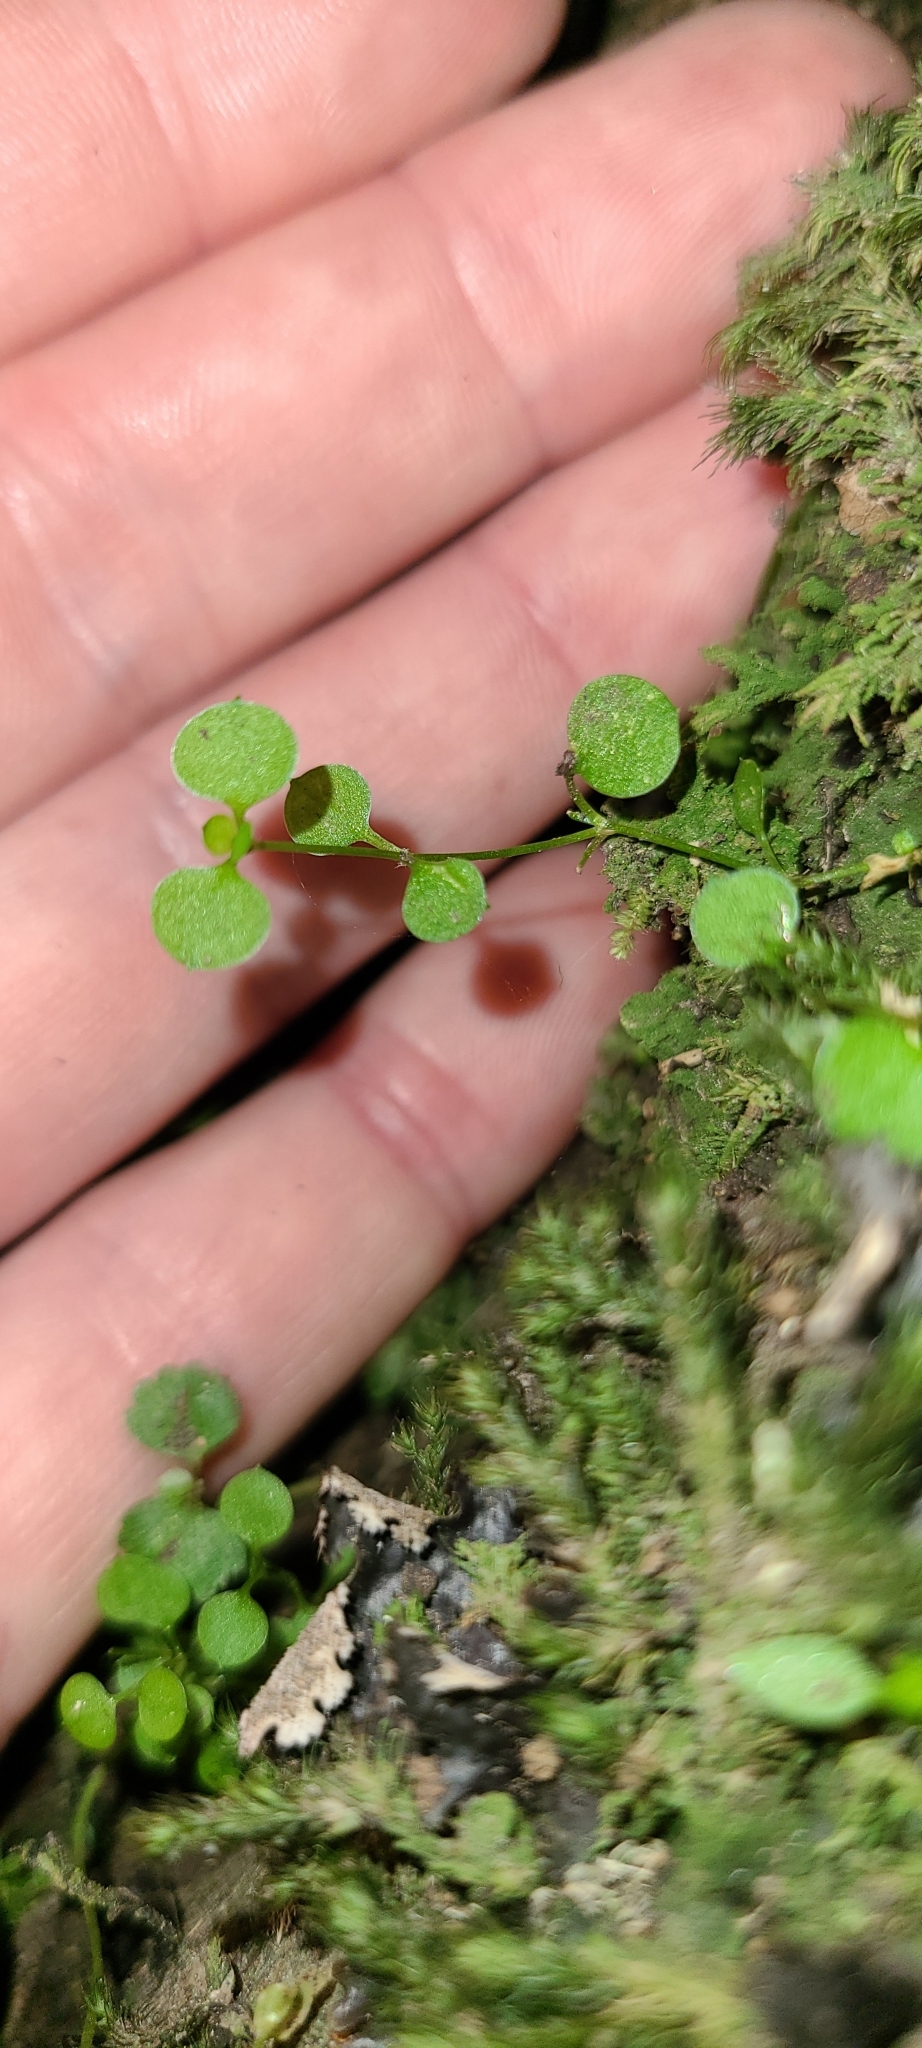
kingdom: Plantae
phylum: Tracheophyta
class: Magnoliopsida
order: Caryophyllales
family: Caryophyllaceae
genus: Stellaria
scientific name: Stellaria parviflora
